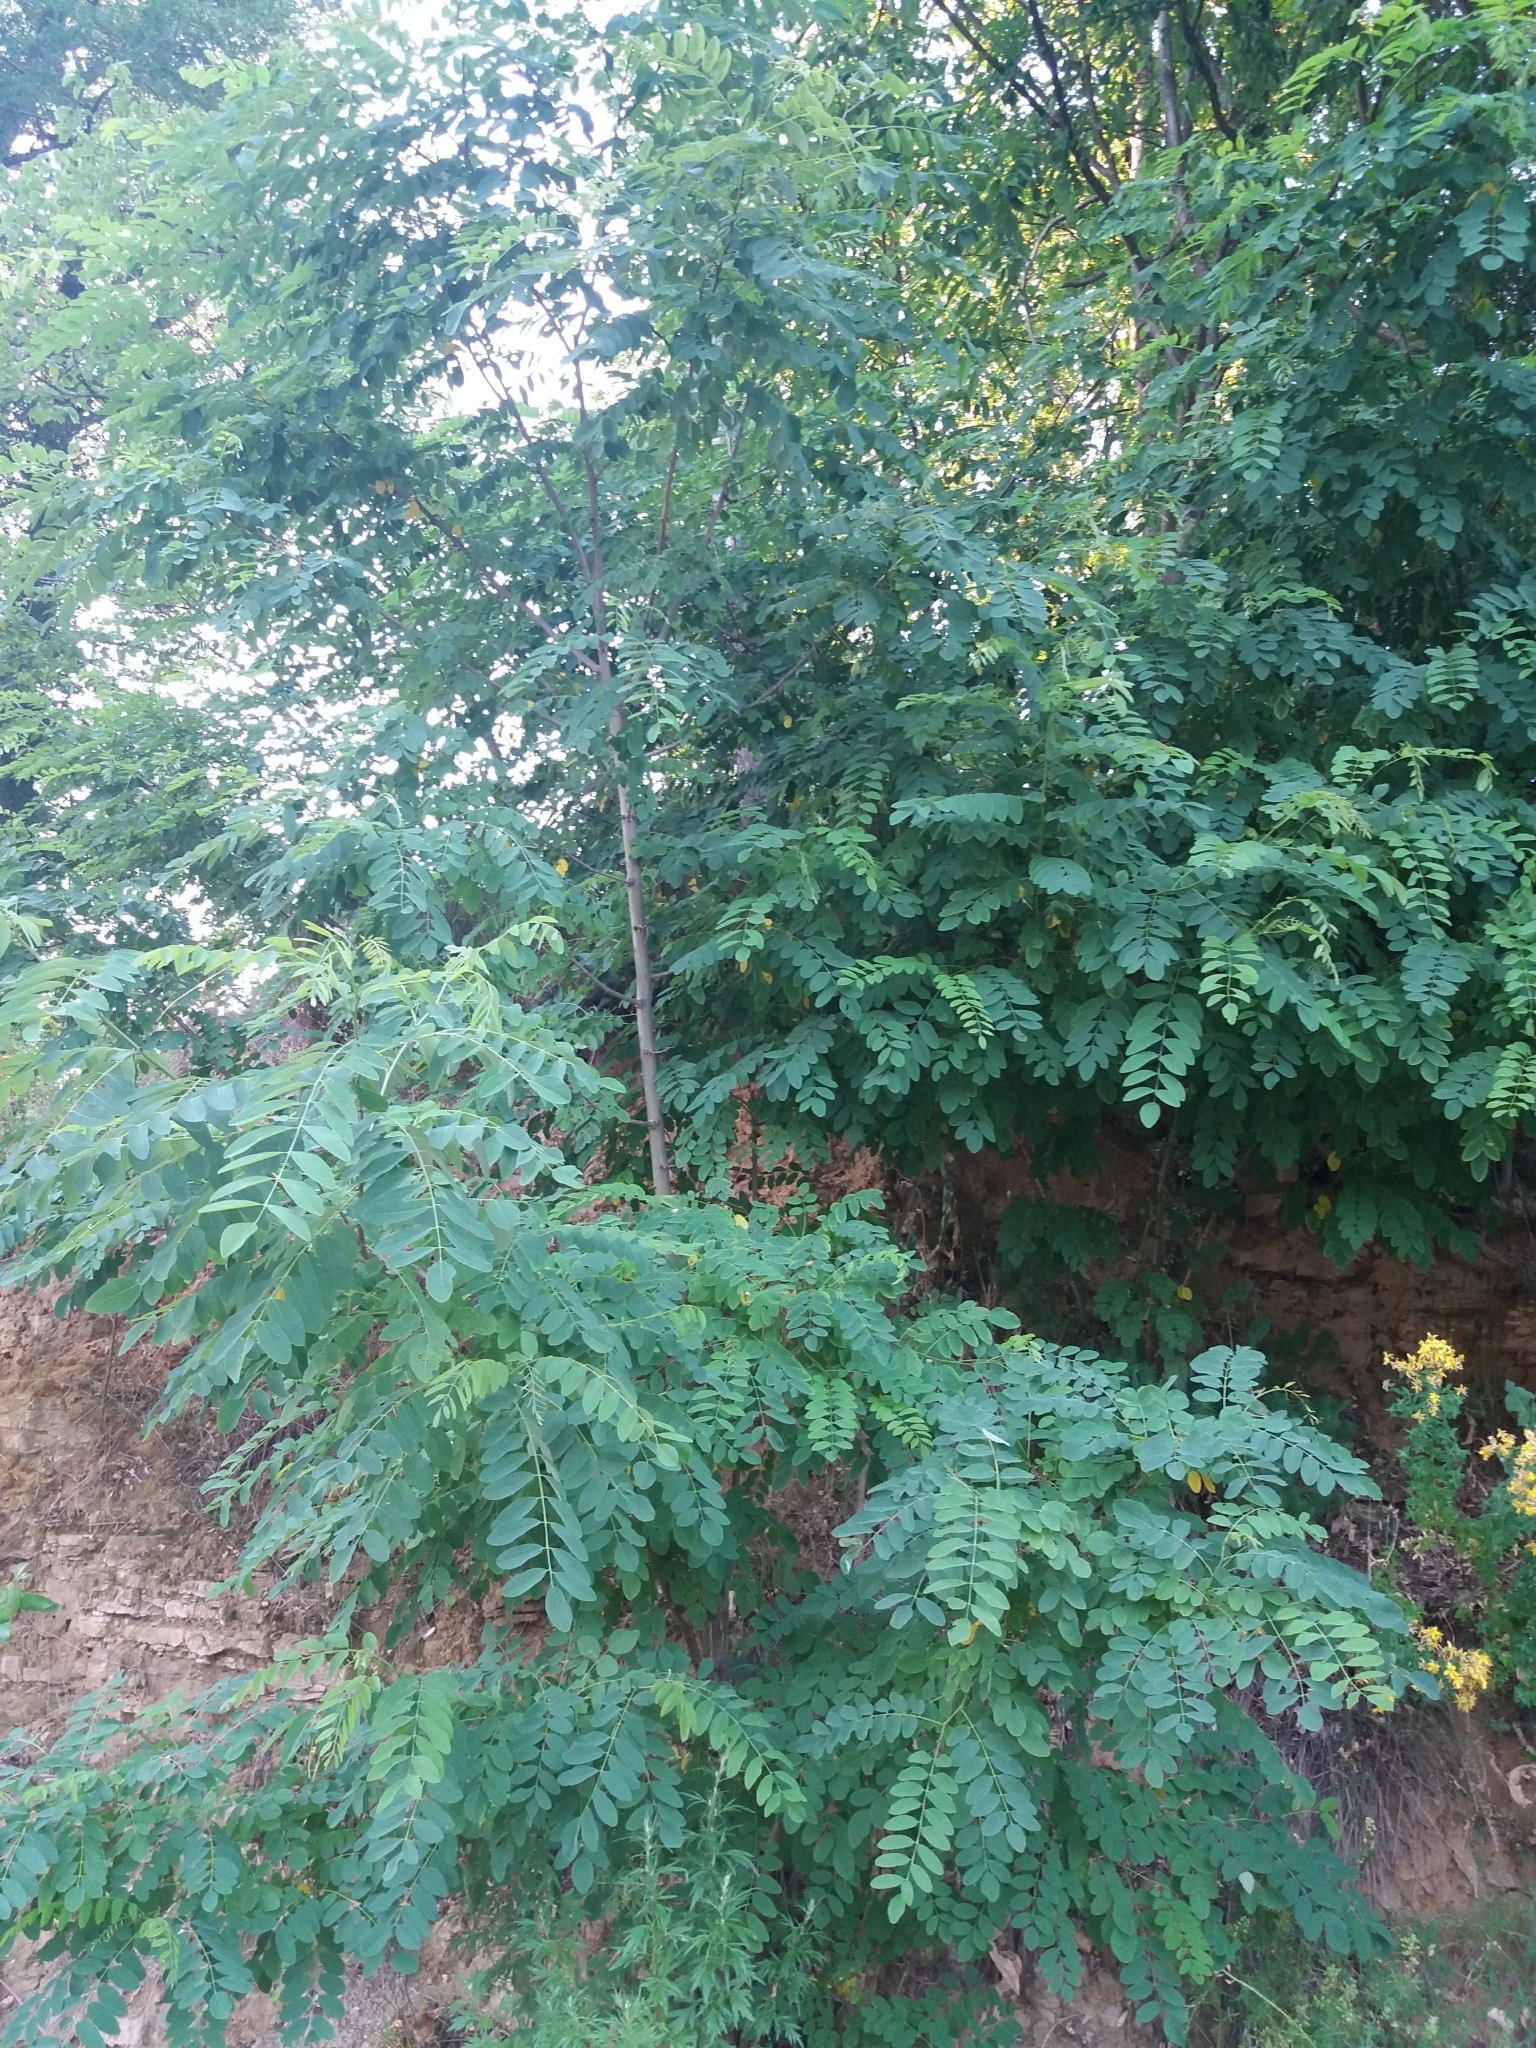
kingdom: Plantae
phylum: Tracheophyta
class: Magnoliopsida
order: Fabales
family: Fabaceae
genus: Robinia
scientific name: Robinia pseudoacacia
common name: Black locust
